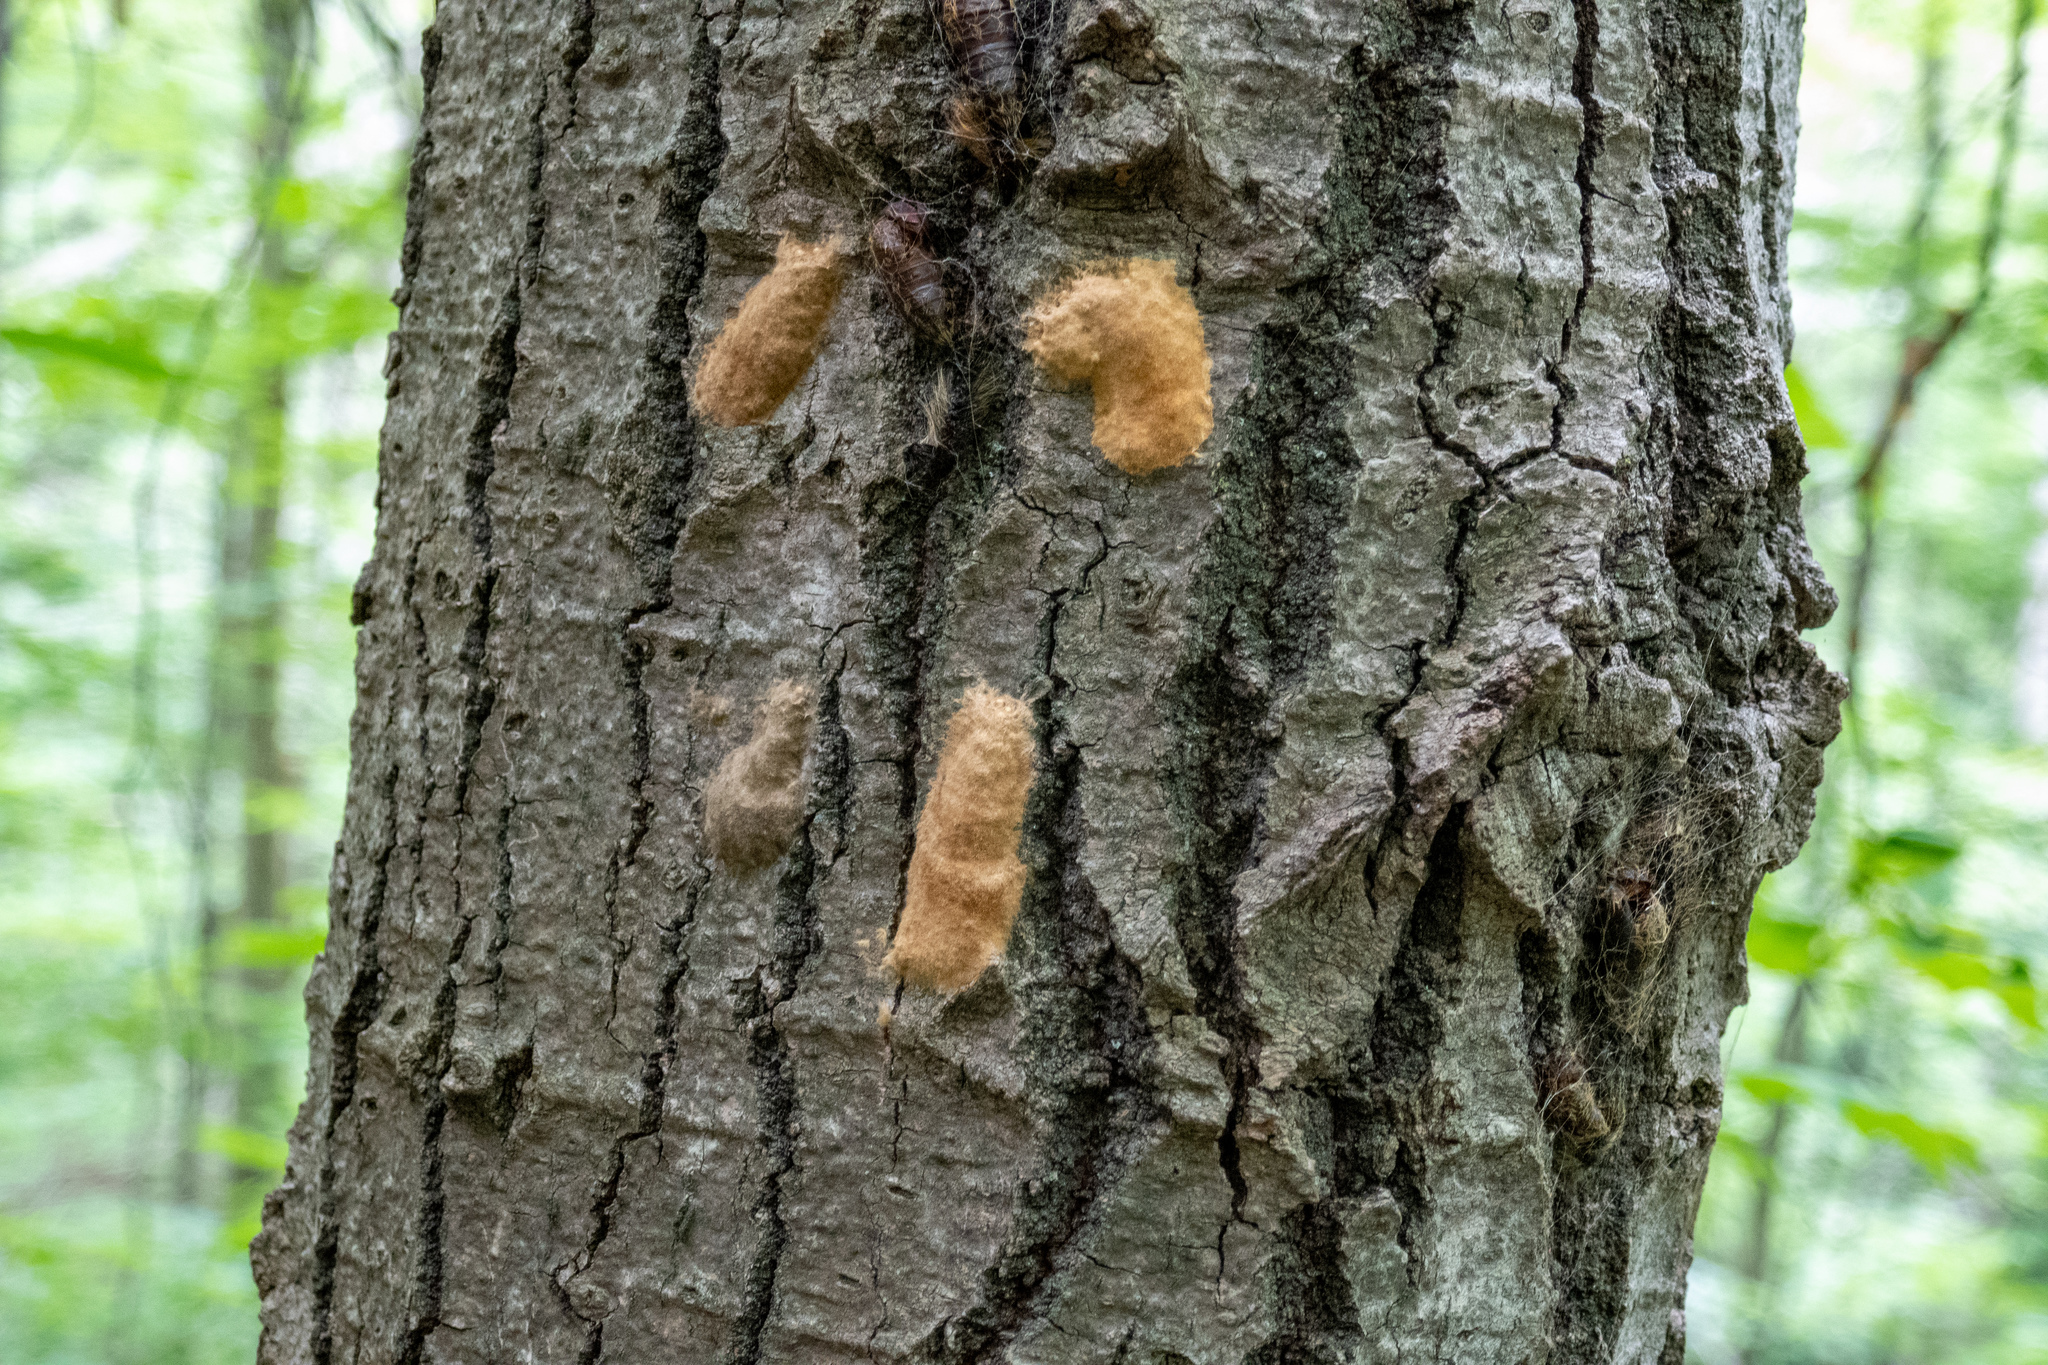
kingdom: Animalia
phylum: Arthropoda
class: Insecta
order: Lepidoptera
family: Erebidae
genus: Lymantria
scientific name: Lymantria dispar
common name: Gypsy moth
